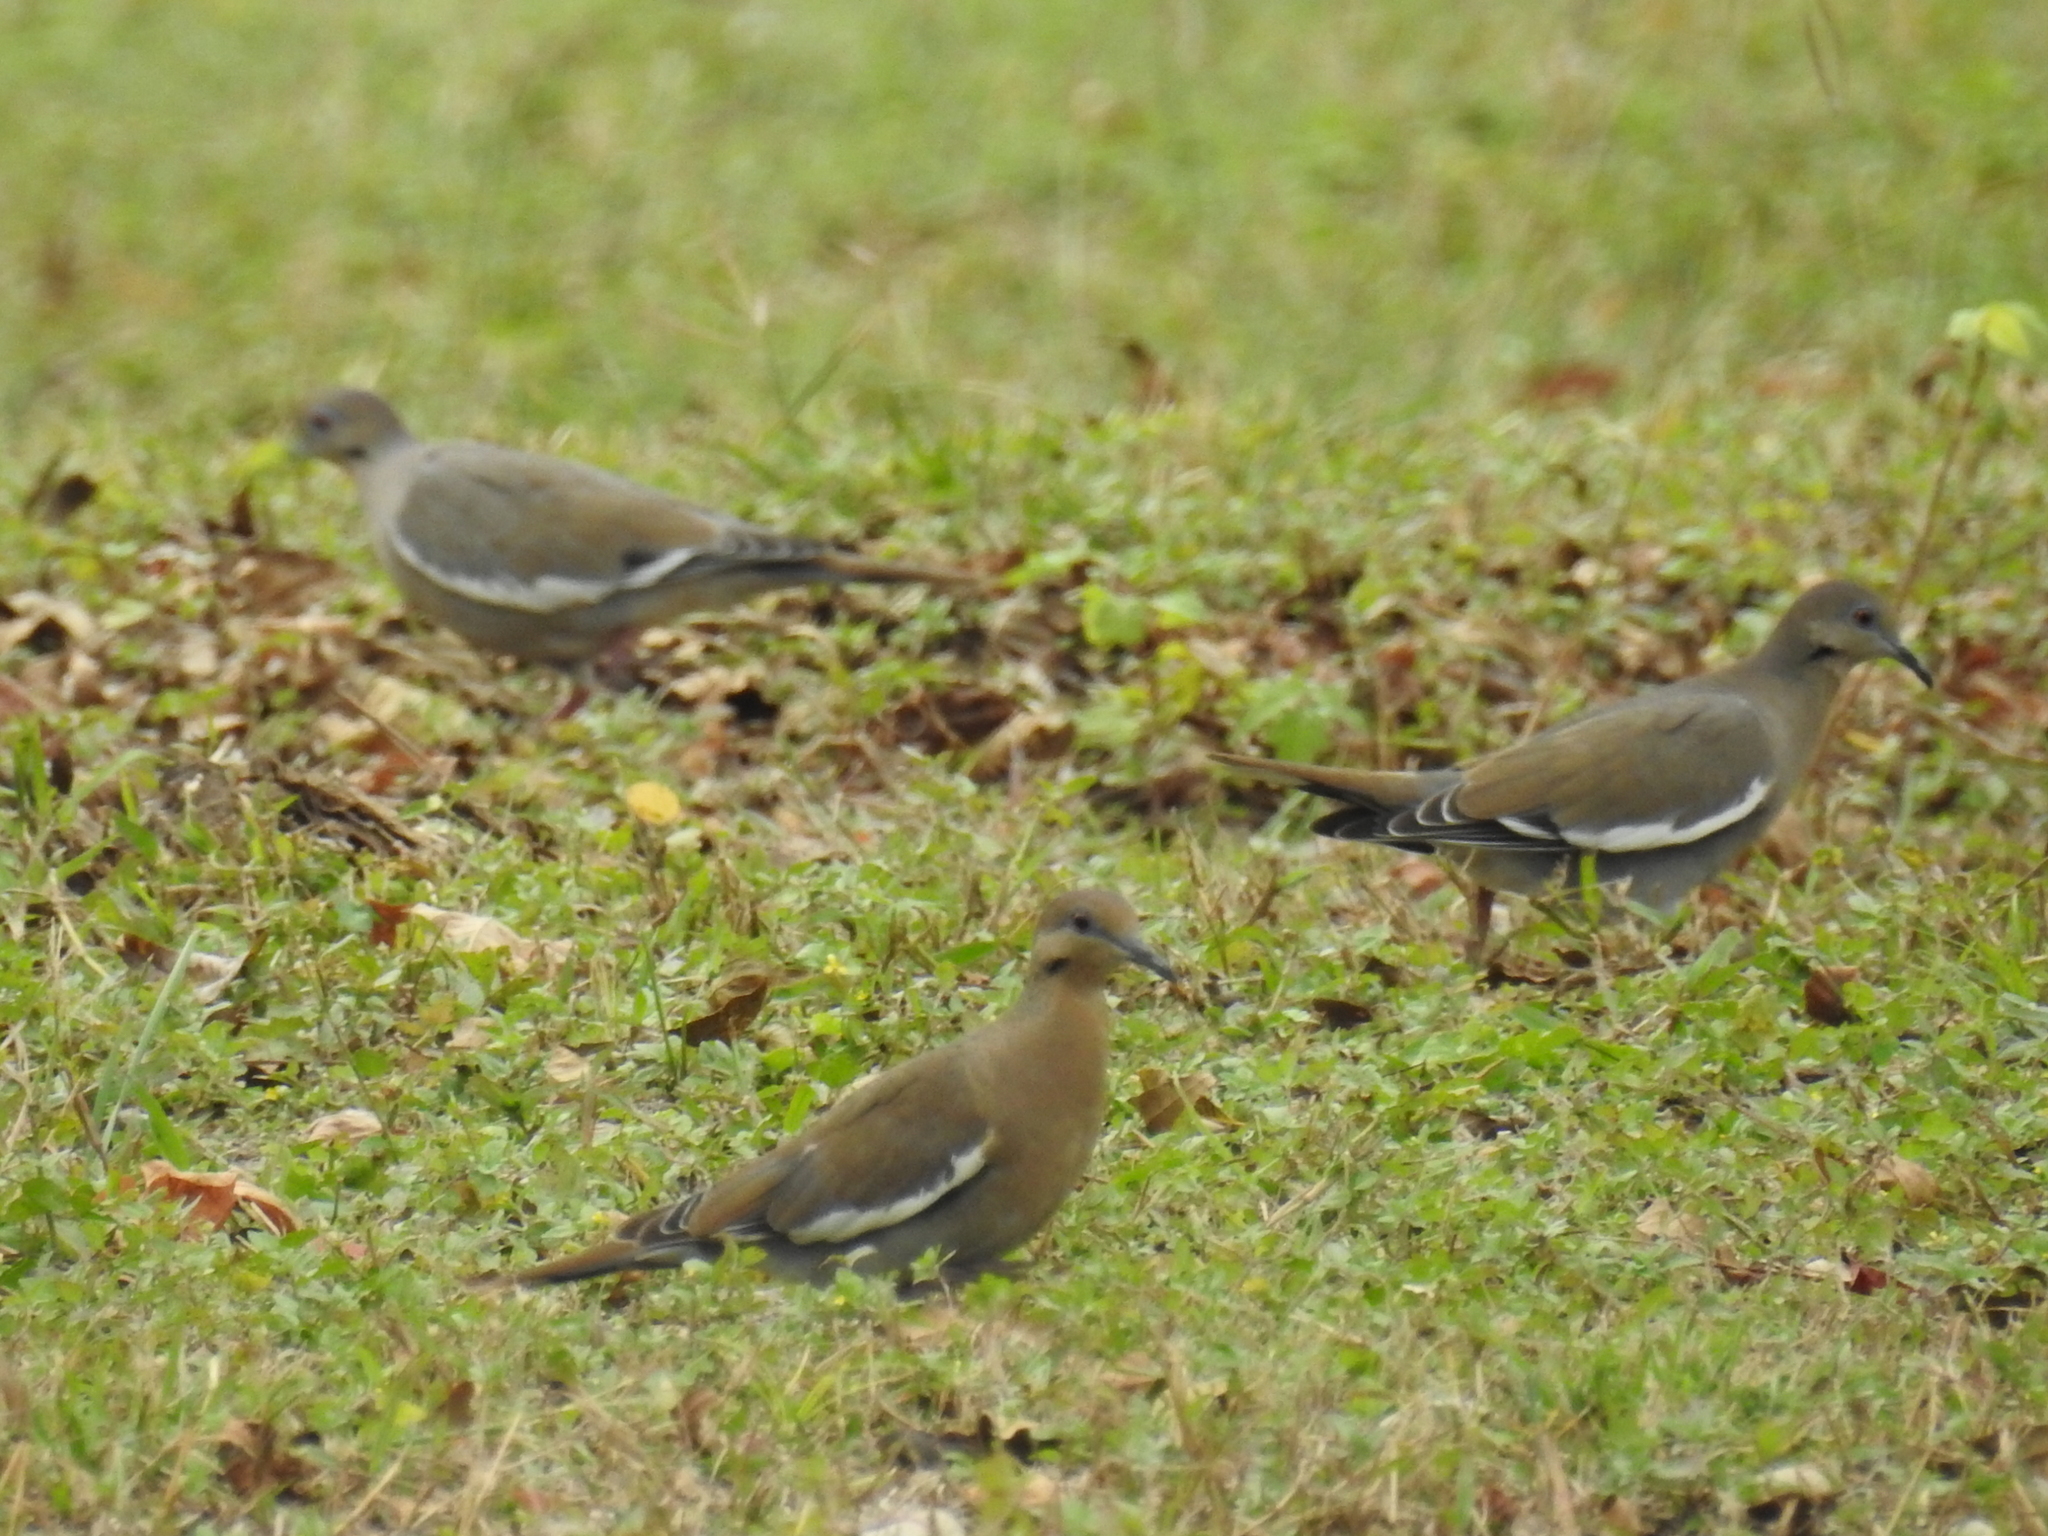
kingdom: Animalia
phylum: Chordata
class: Aves
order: Columbiformes
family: Columbidae
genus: Zenaida
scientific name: Zenaida asiatica
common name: White-winged dove
